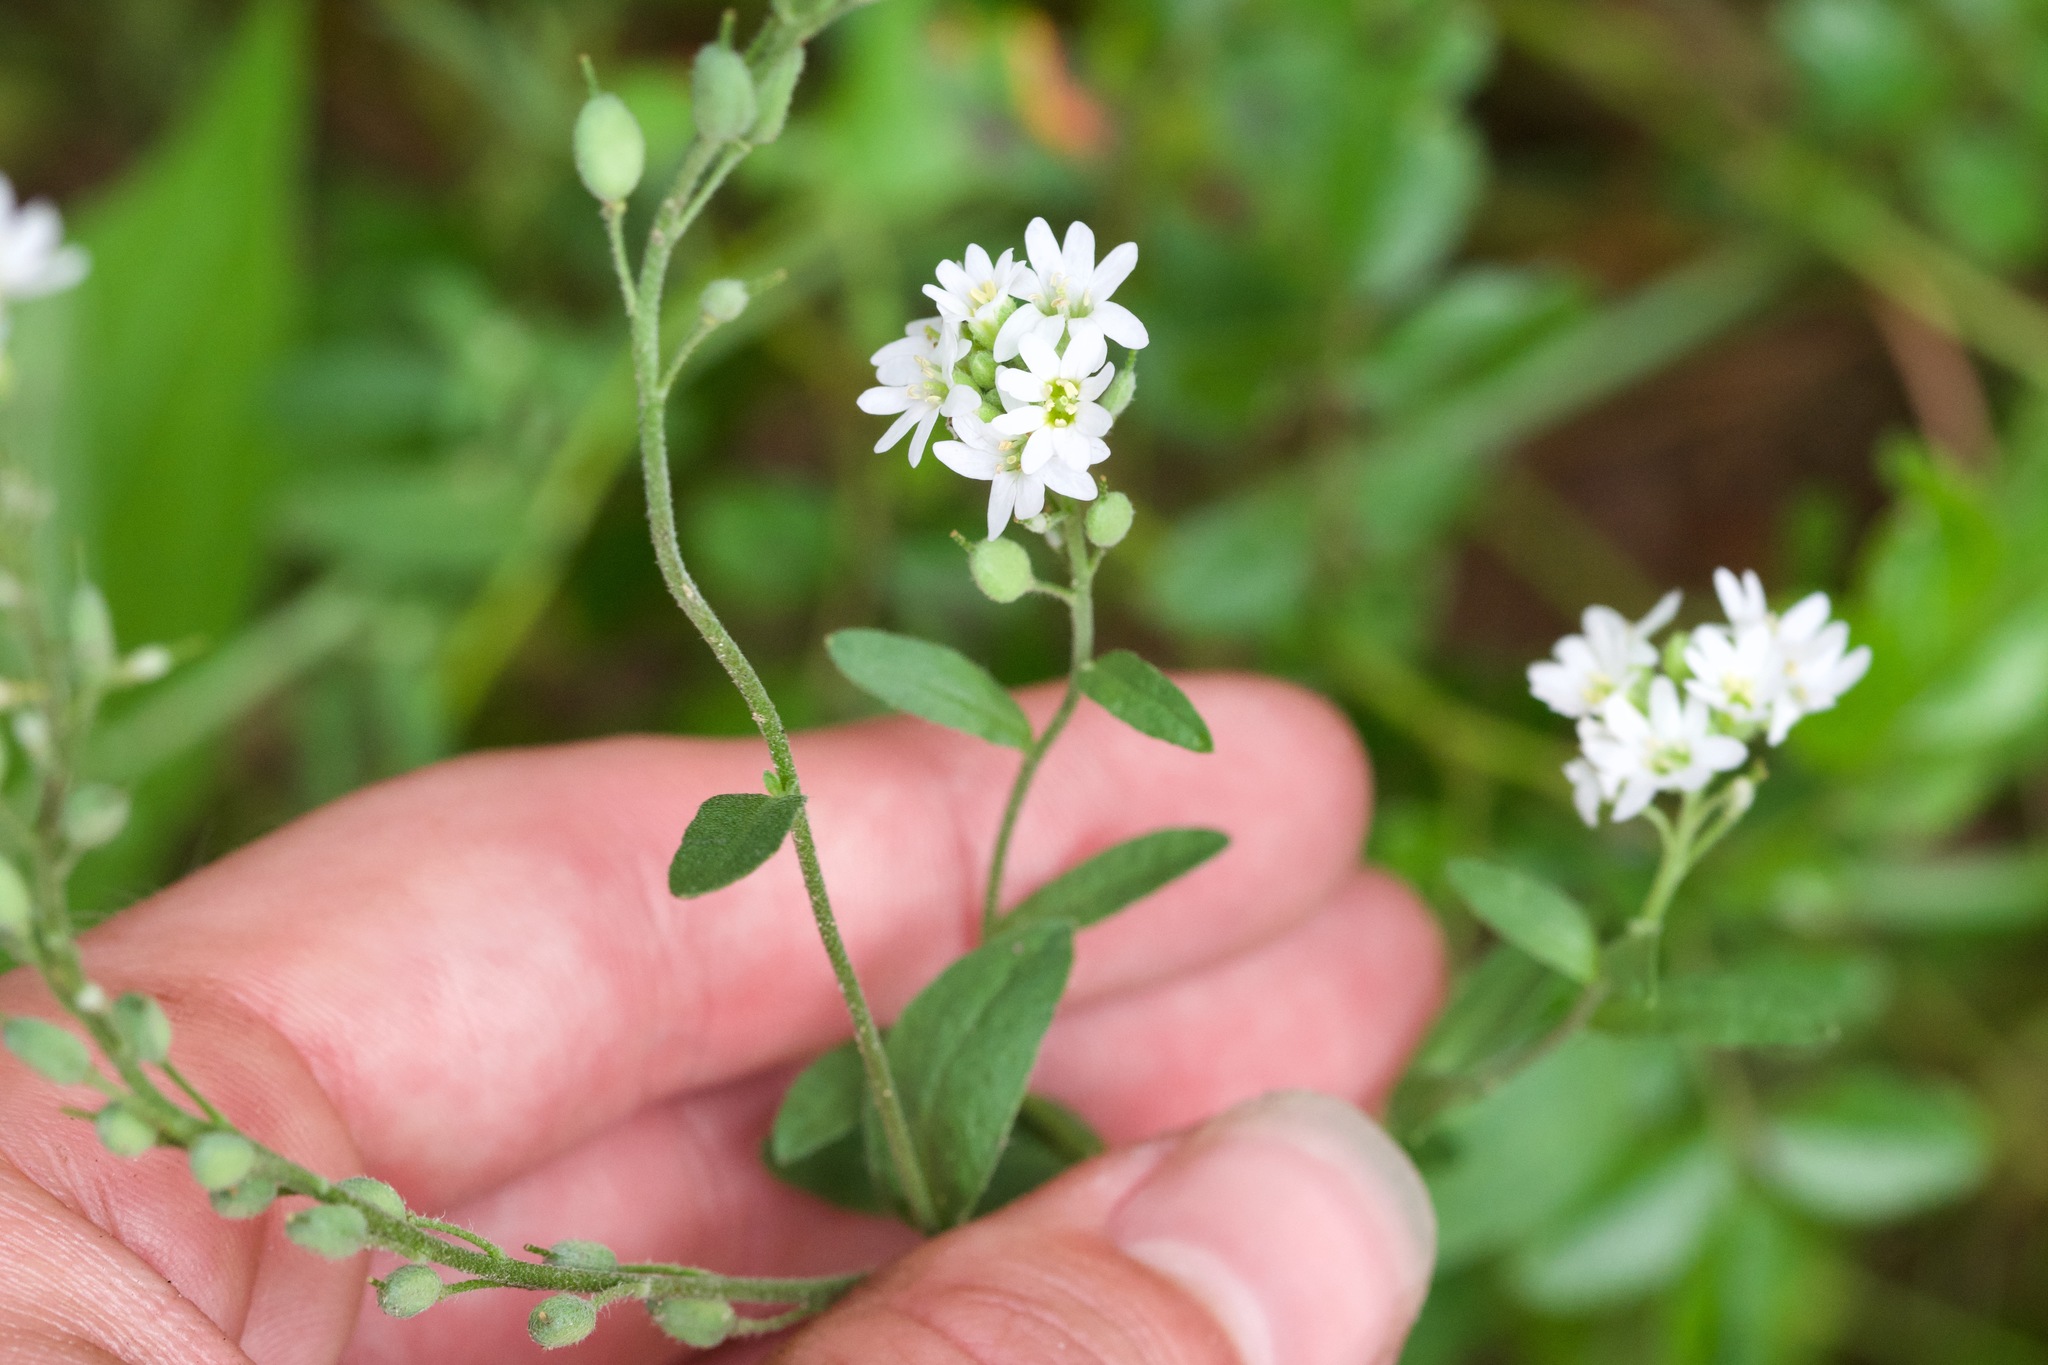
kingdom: Plantae
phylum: Tracheophyta
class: Magnoliopsida
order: Brassicales
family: Brassicaceae
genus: Berteroa
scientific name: Berteroa incana
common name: Hoary alison
